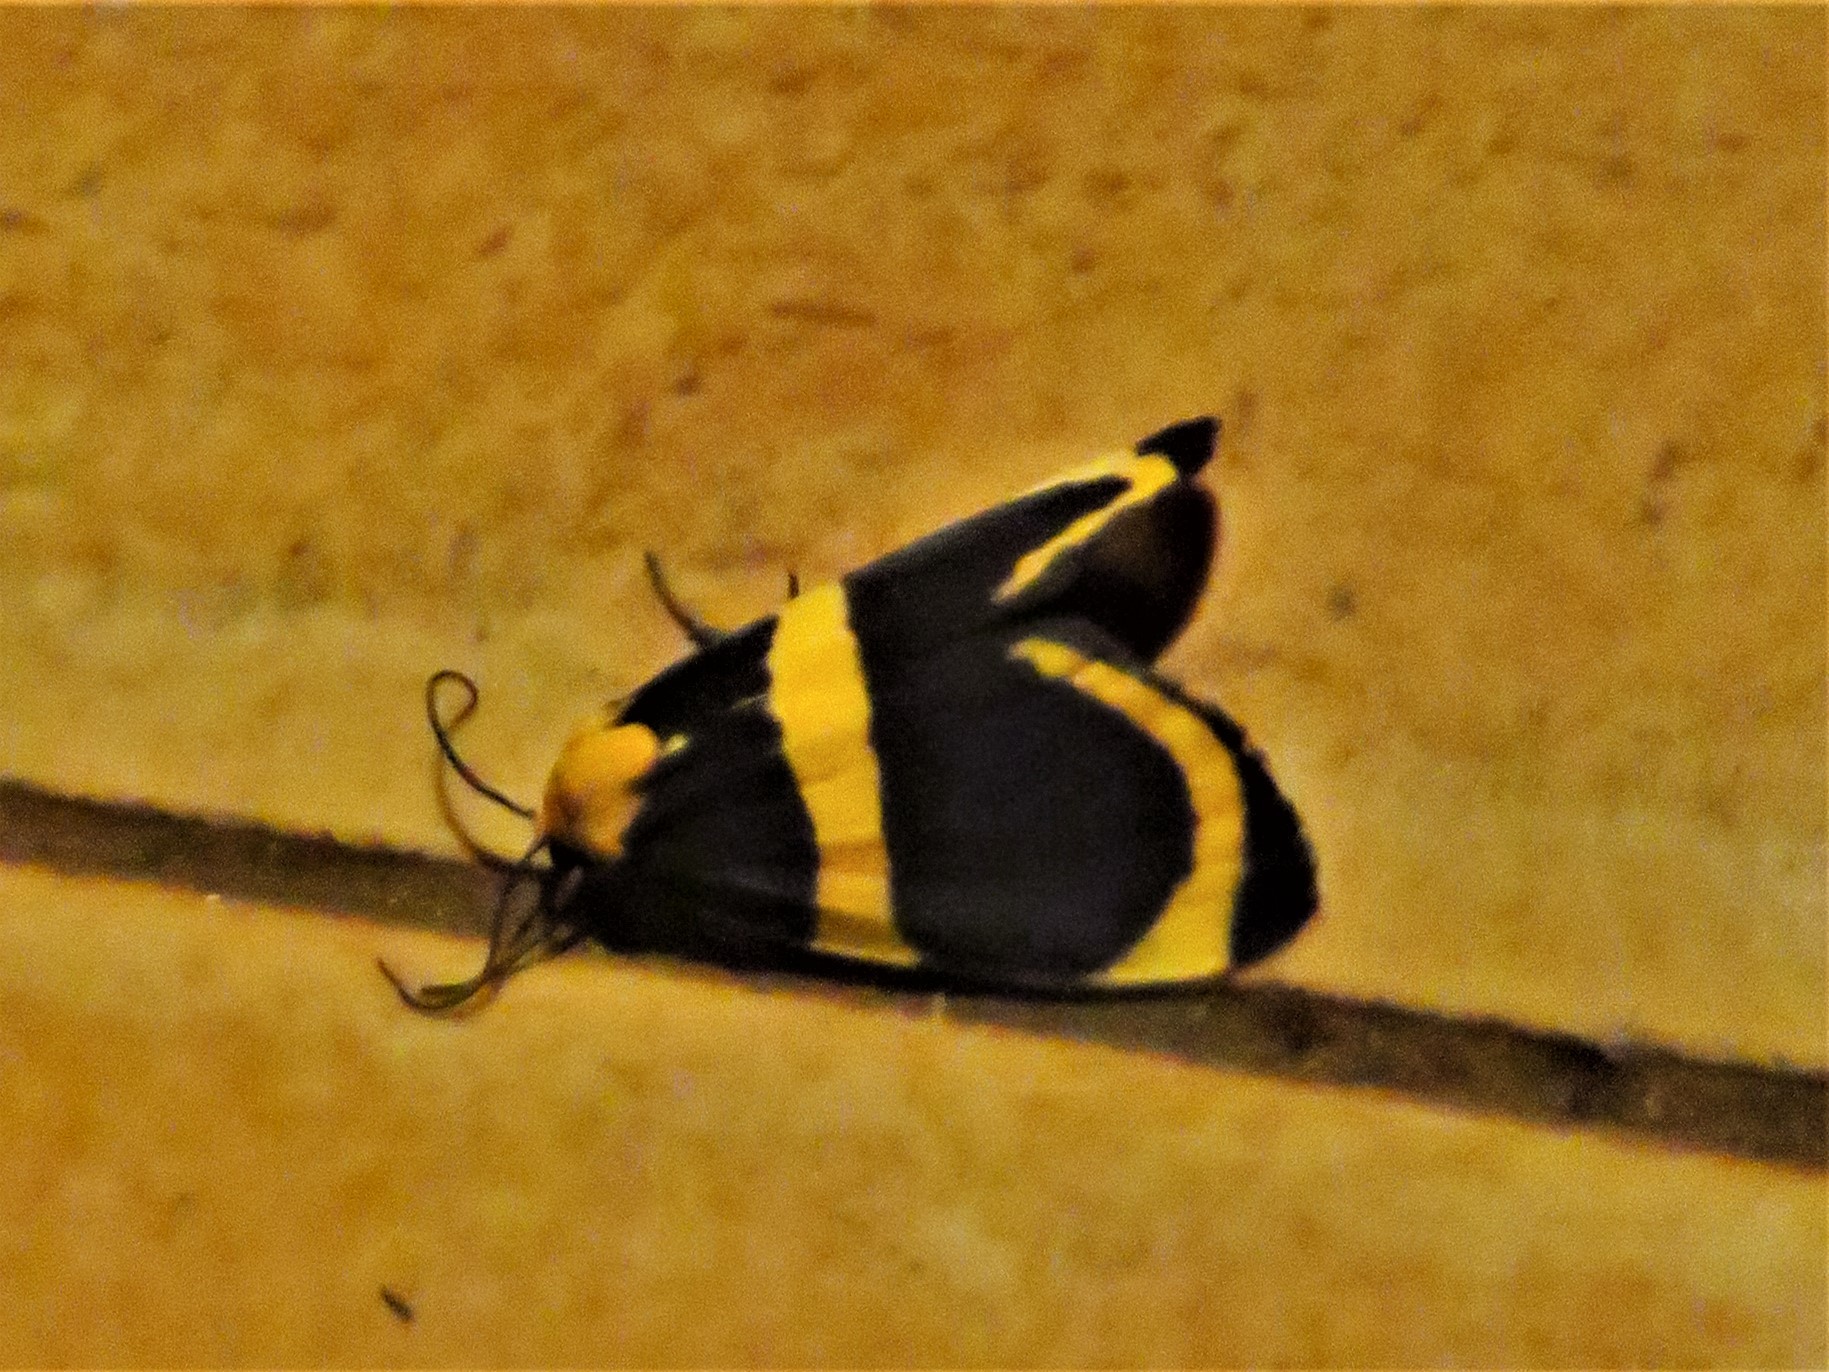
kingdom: Animalia
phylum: Arthropoda
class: Insecta
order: Lepidoptera
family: Erebidae
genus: Eudesmia
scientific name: Eudesmia menea
